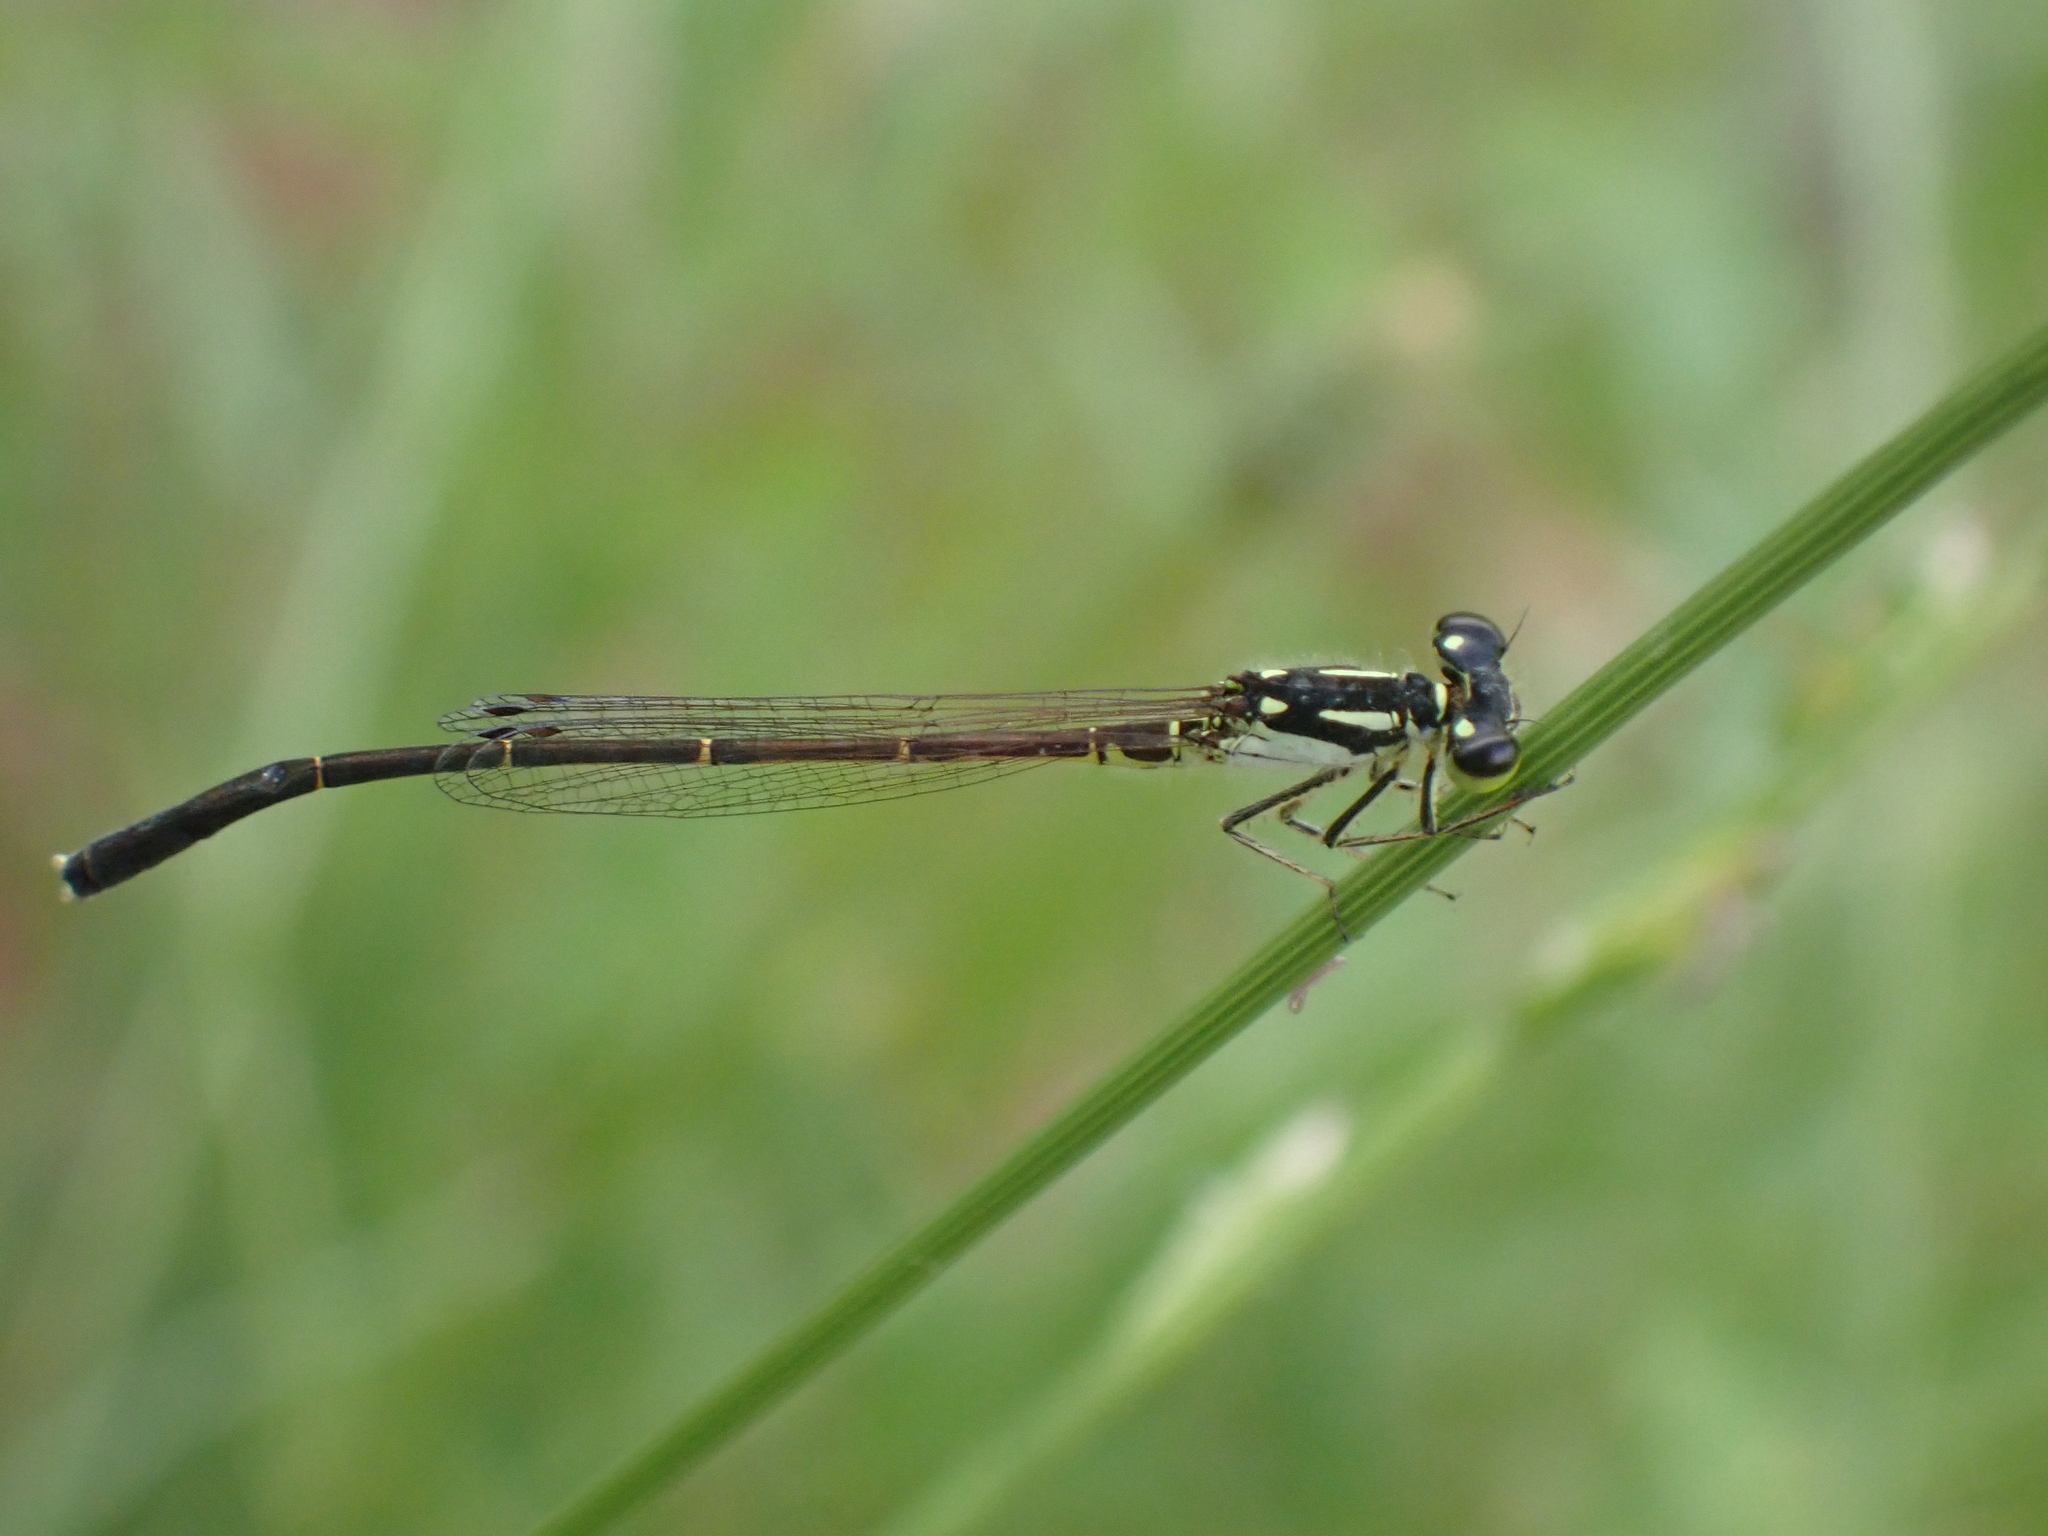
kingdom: Animalia
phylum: Arthropoda
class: Insecta
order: Odonata
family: Coenagrionidae
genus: Ischnura
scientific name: Ischnura posita
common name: Fragile forktail
